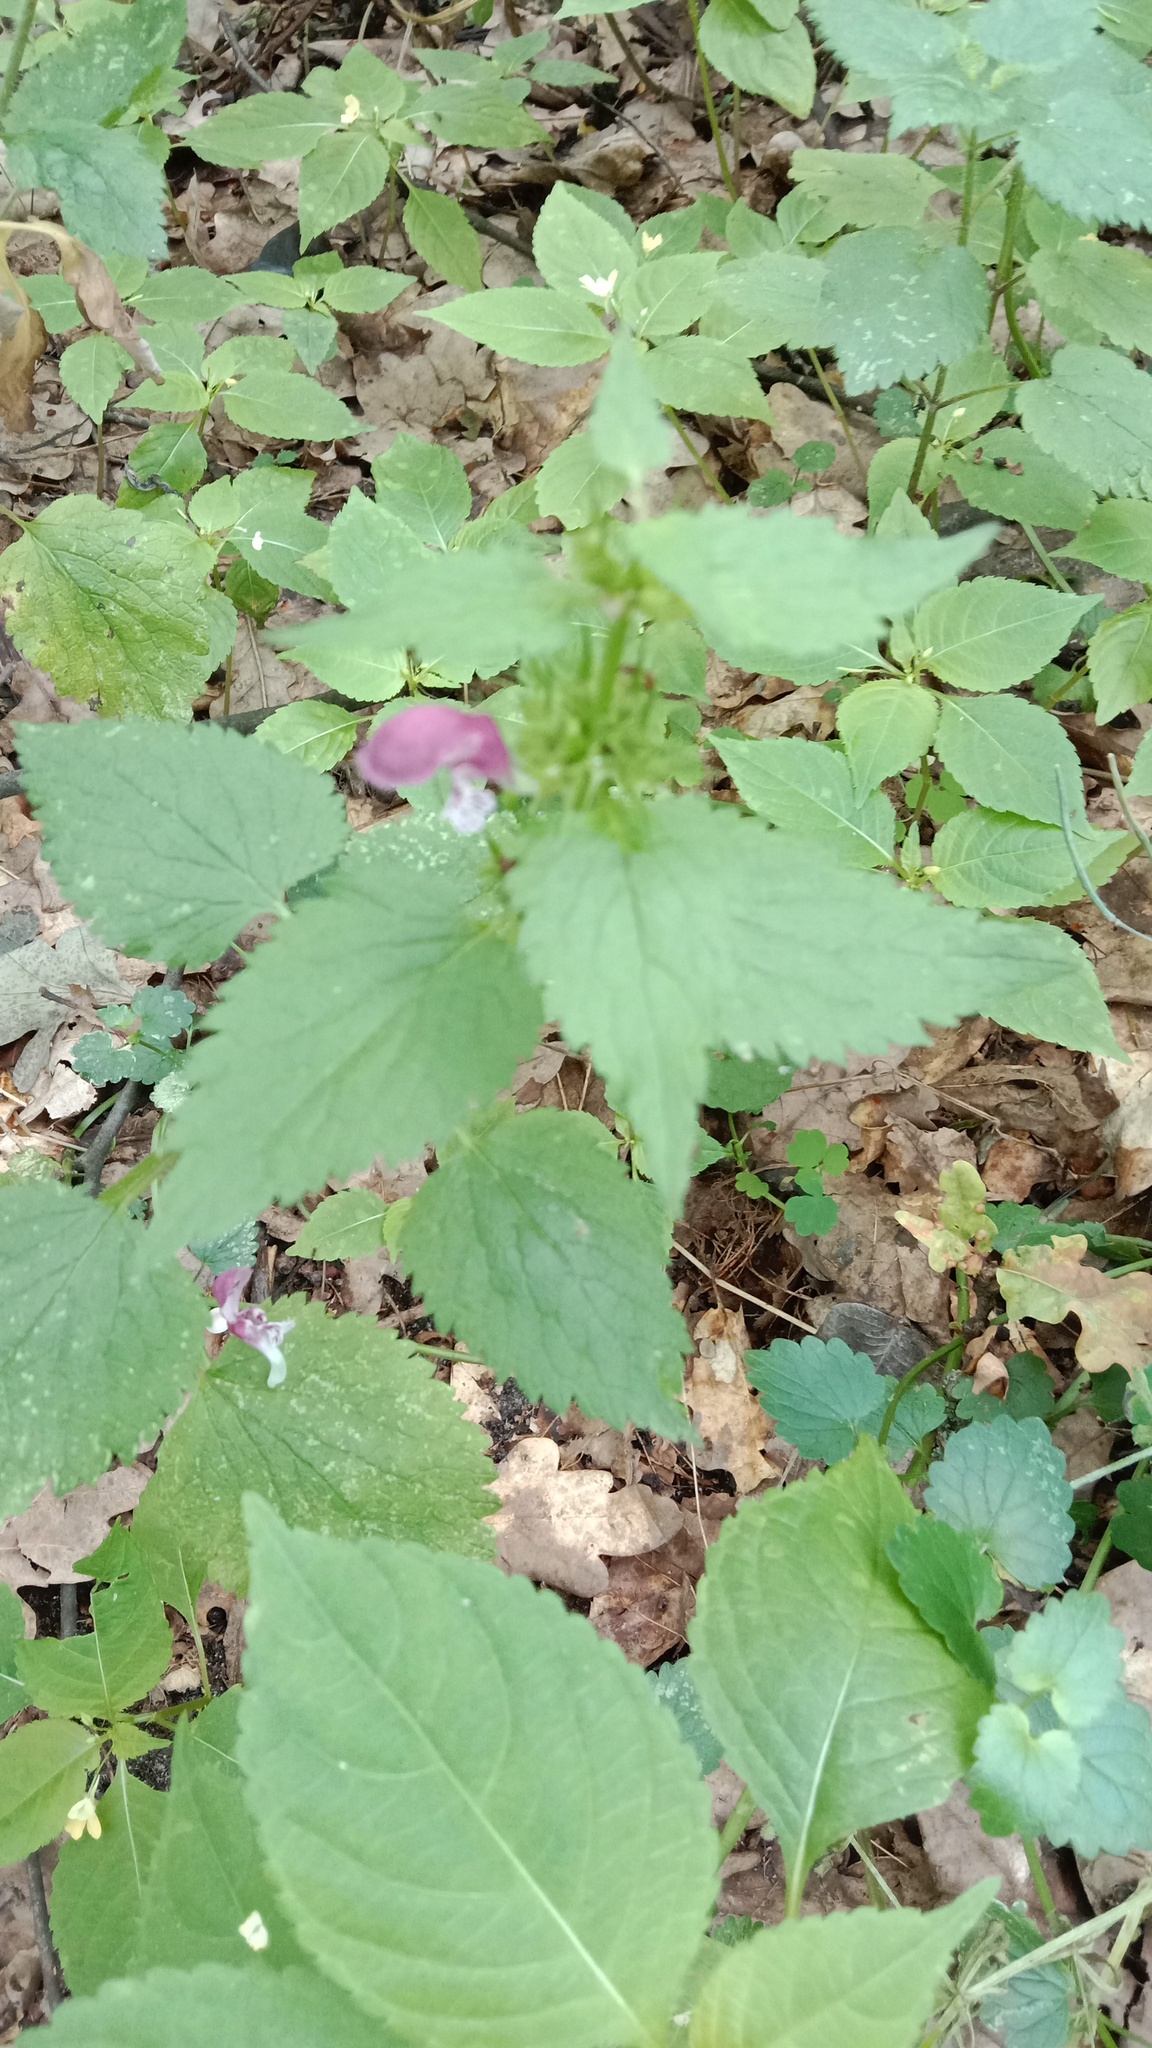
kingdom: Plantae
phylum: Tracheophyta
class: Magnoliopsida
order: Lamiales
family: Lamiaceae
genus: Lamium
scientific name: Lamium maculatum
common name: Spotted dead-nettle
